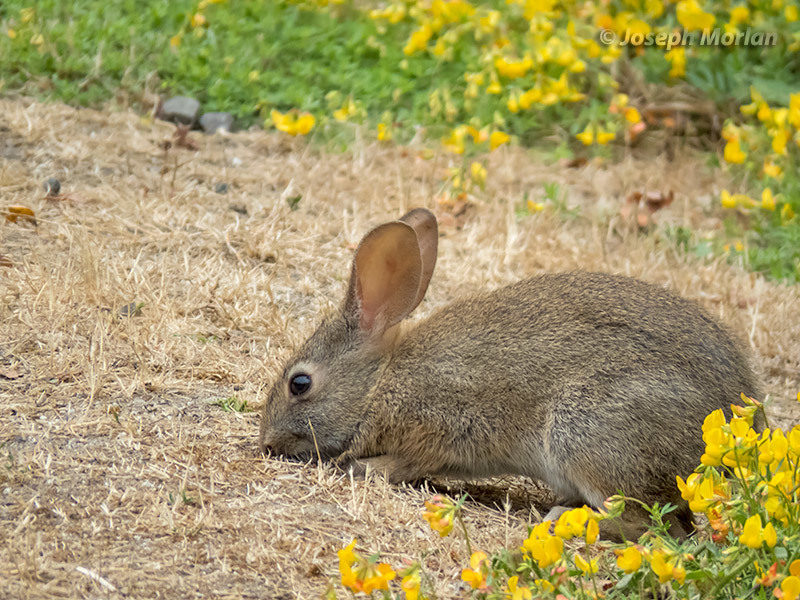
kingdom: Animalia
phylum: Chordata
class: Mammalia
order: Lagomorpha
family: Leporidae
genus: Sylvilagus
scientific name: Sylvilagus bachmani
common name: Brush rabbit
